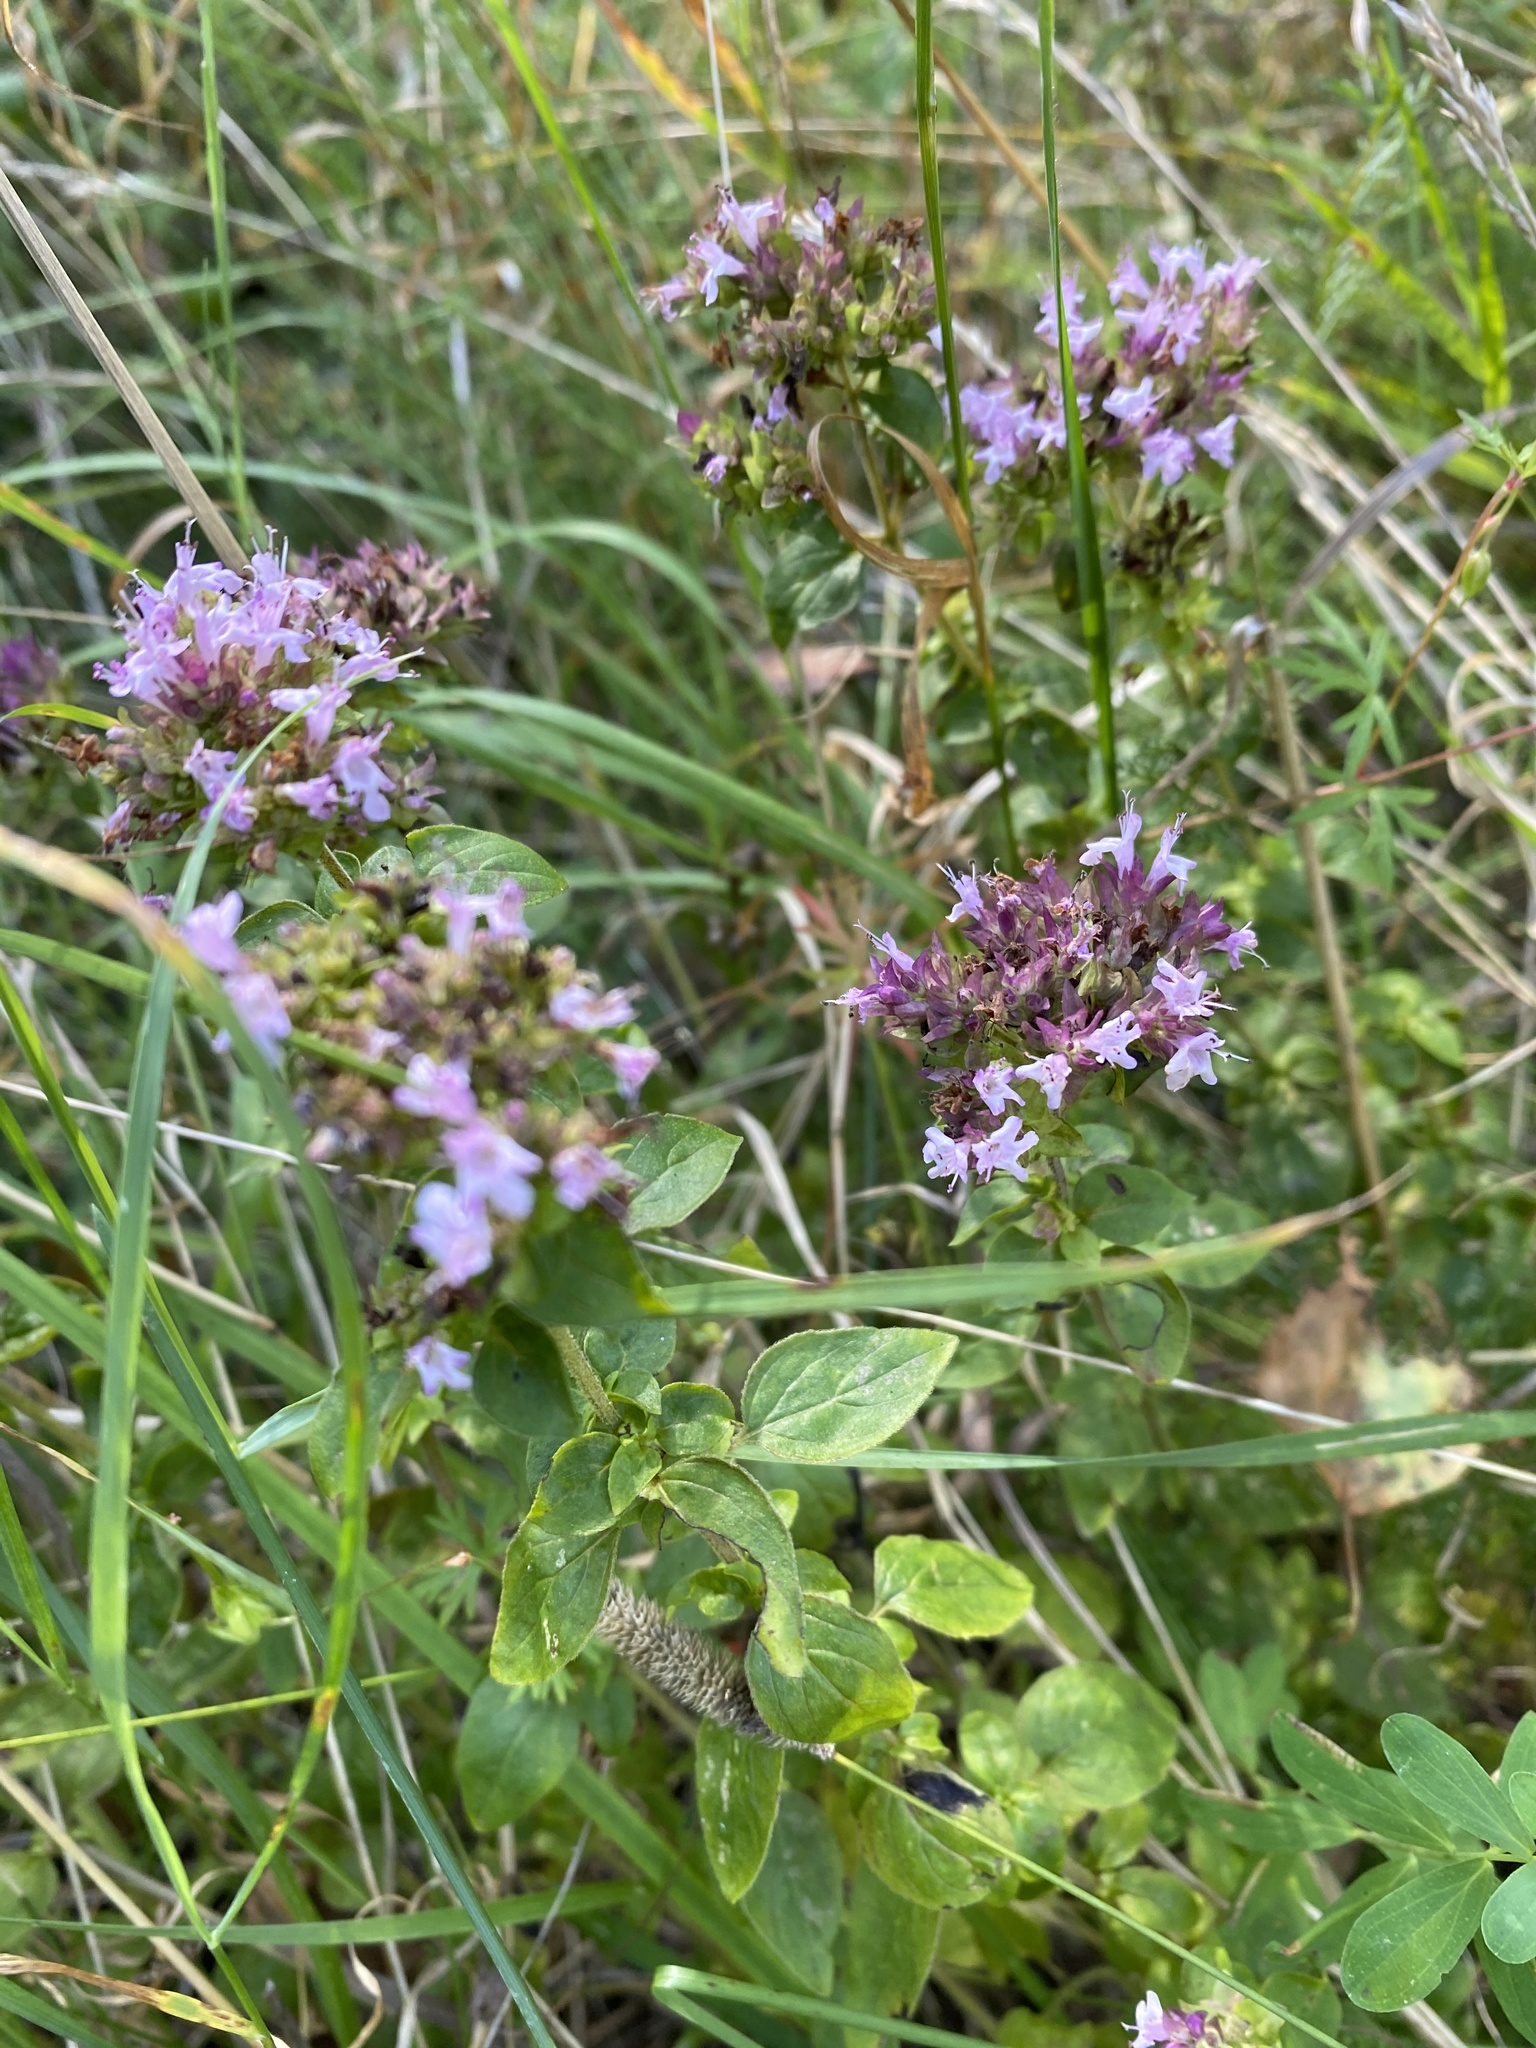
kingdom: Plantae
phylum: Tracheophyta
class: Magnoliopsida
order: Lamiales
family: Lamiaceae
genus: Origanum
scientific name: Origanum vulgare
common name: Wild marjoram
